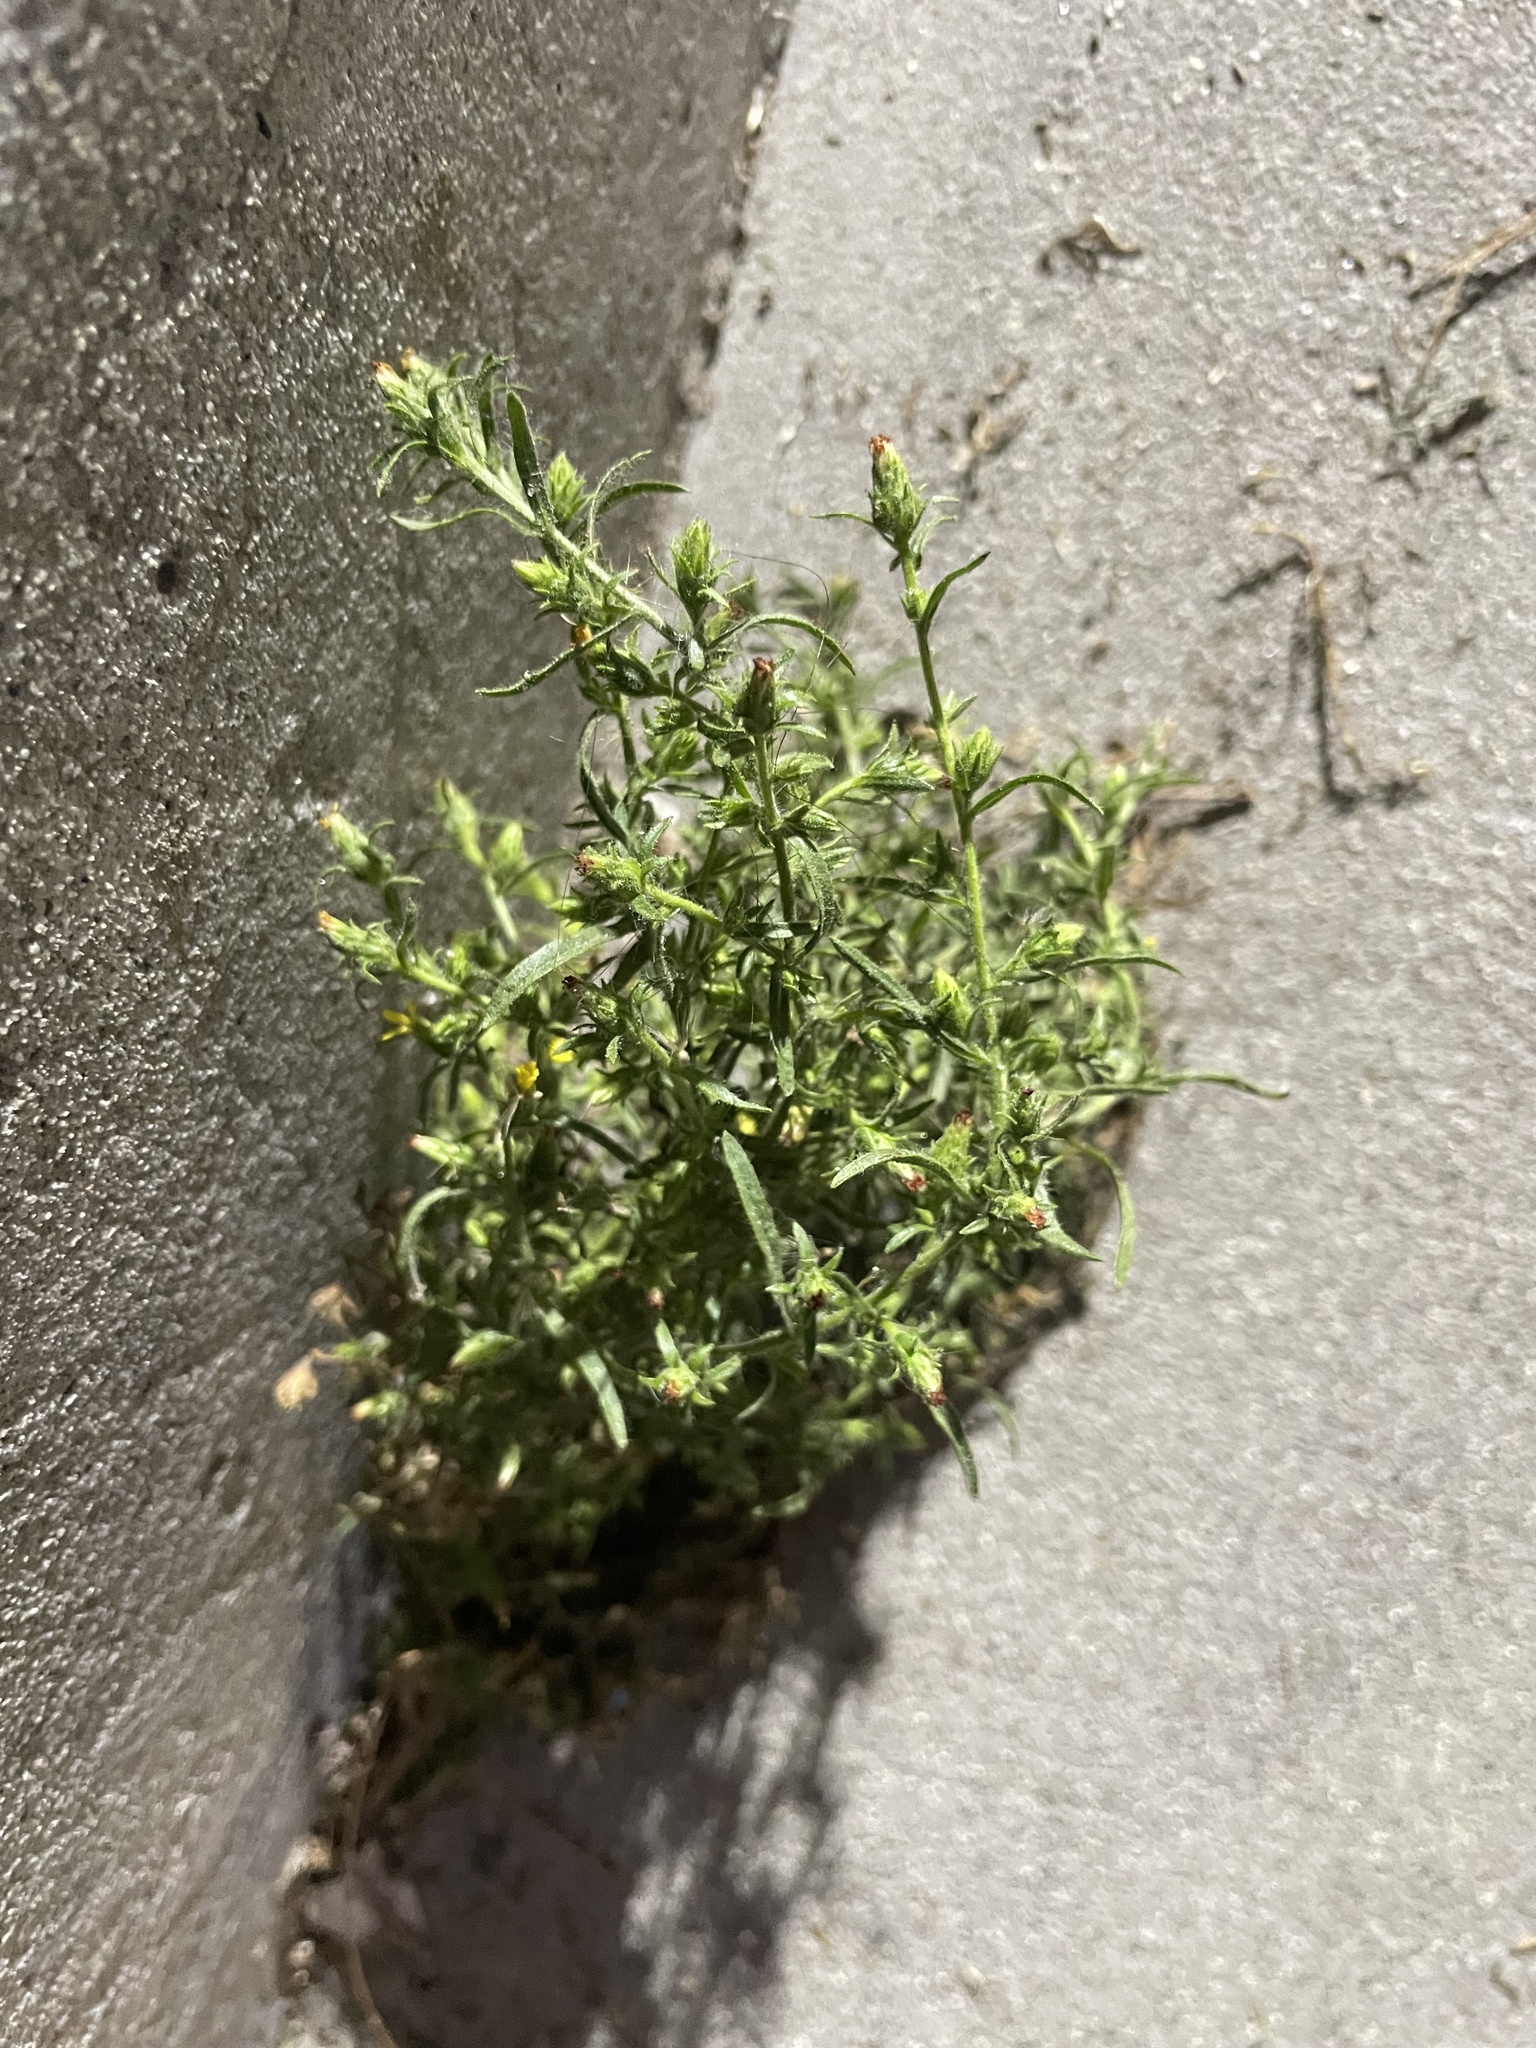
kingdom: Plantae
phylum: Tracheophyta
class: Magnoliopsida
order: Asterales
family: Asteraceae
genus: Dittrichia
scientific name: Dittrichia graveolens
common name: Stinking fleabane
